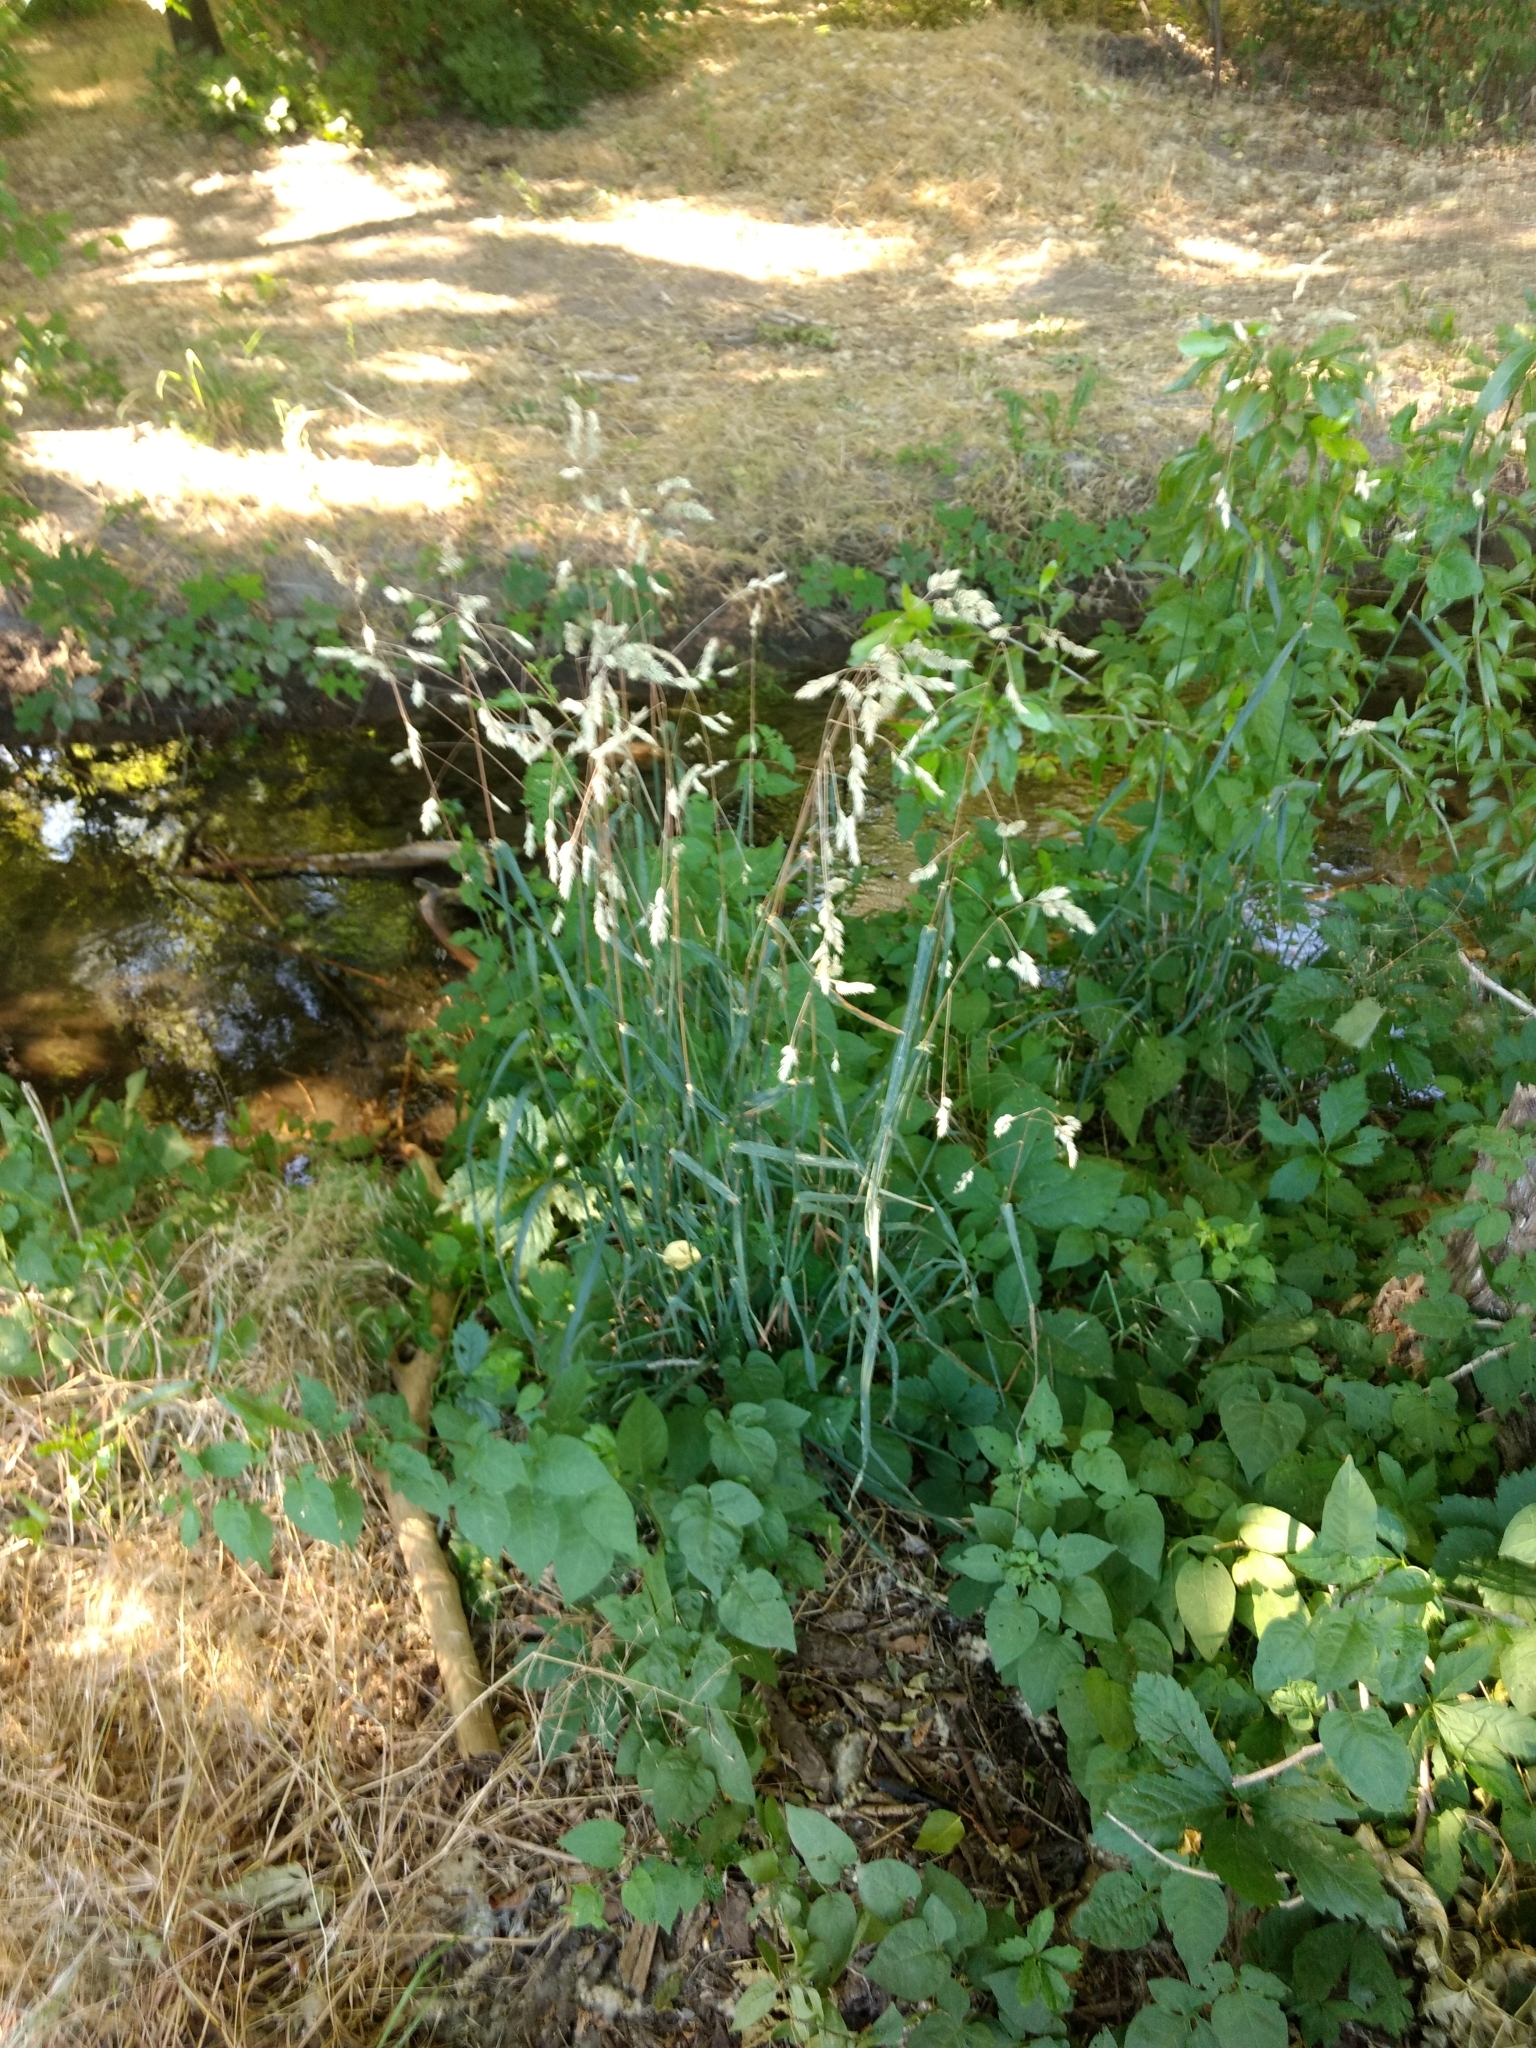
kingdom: Plantae
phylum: Tracheophyta
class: Liliopsida
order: Poales
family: Poaceae
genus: Dactylis
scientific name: Dactylis glomerata
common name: Orchardgrass
